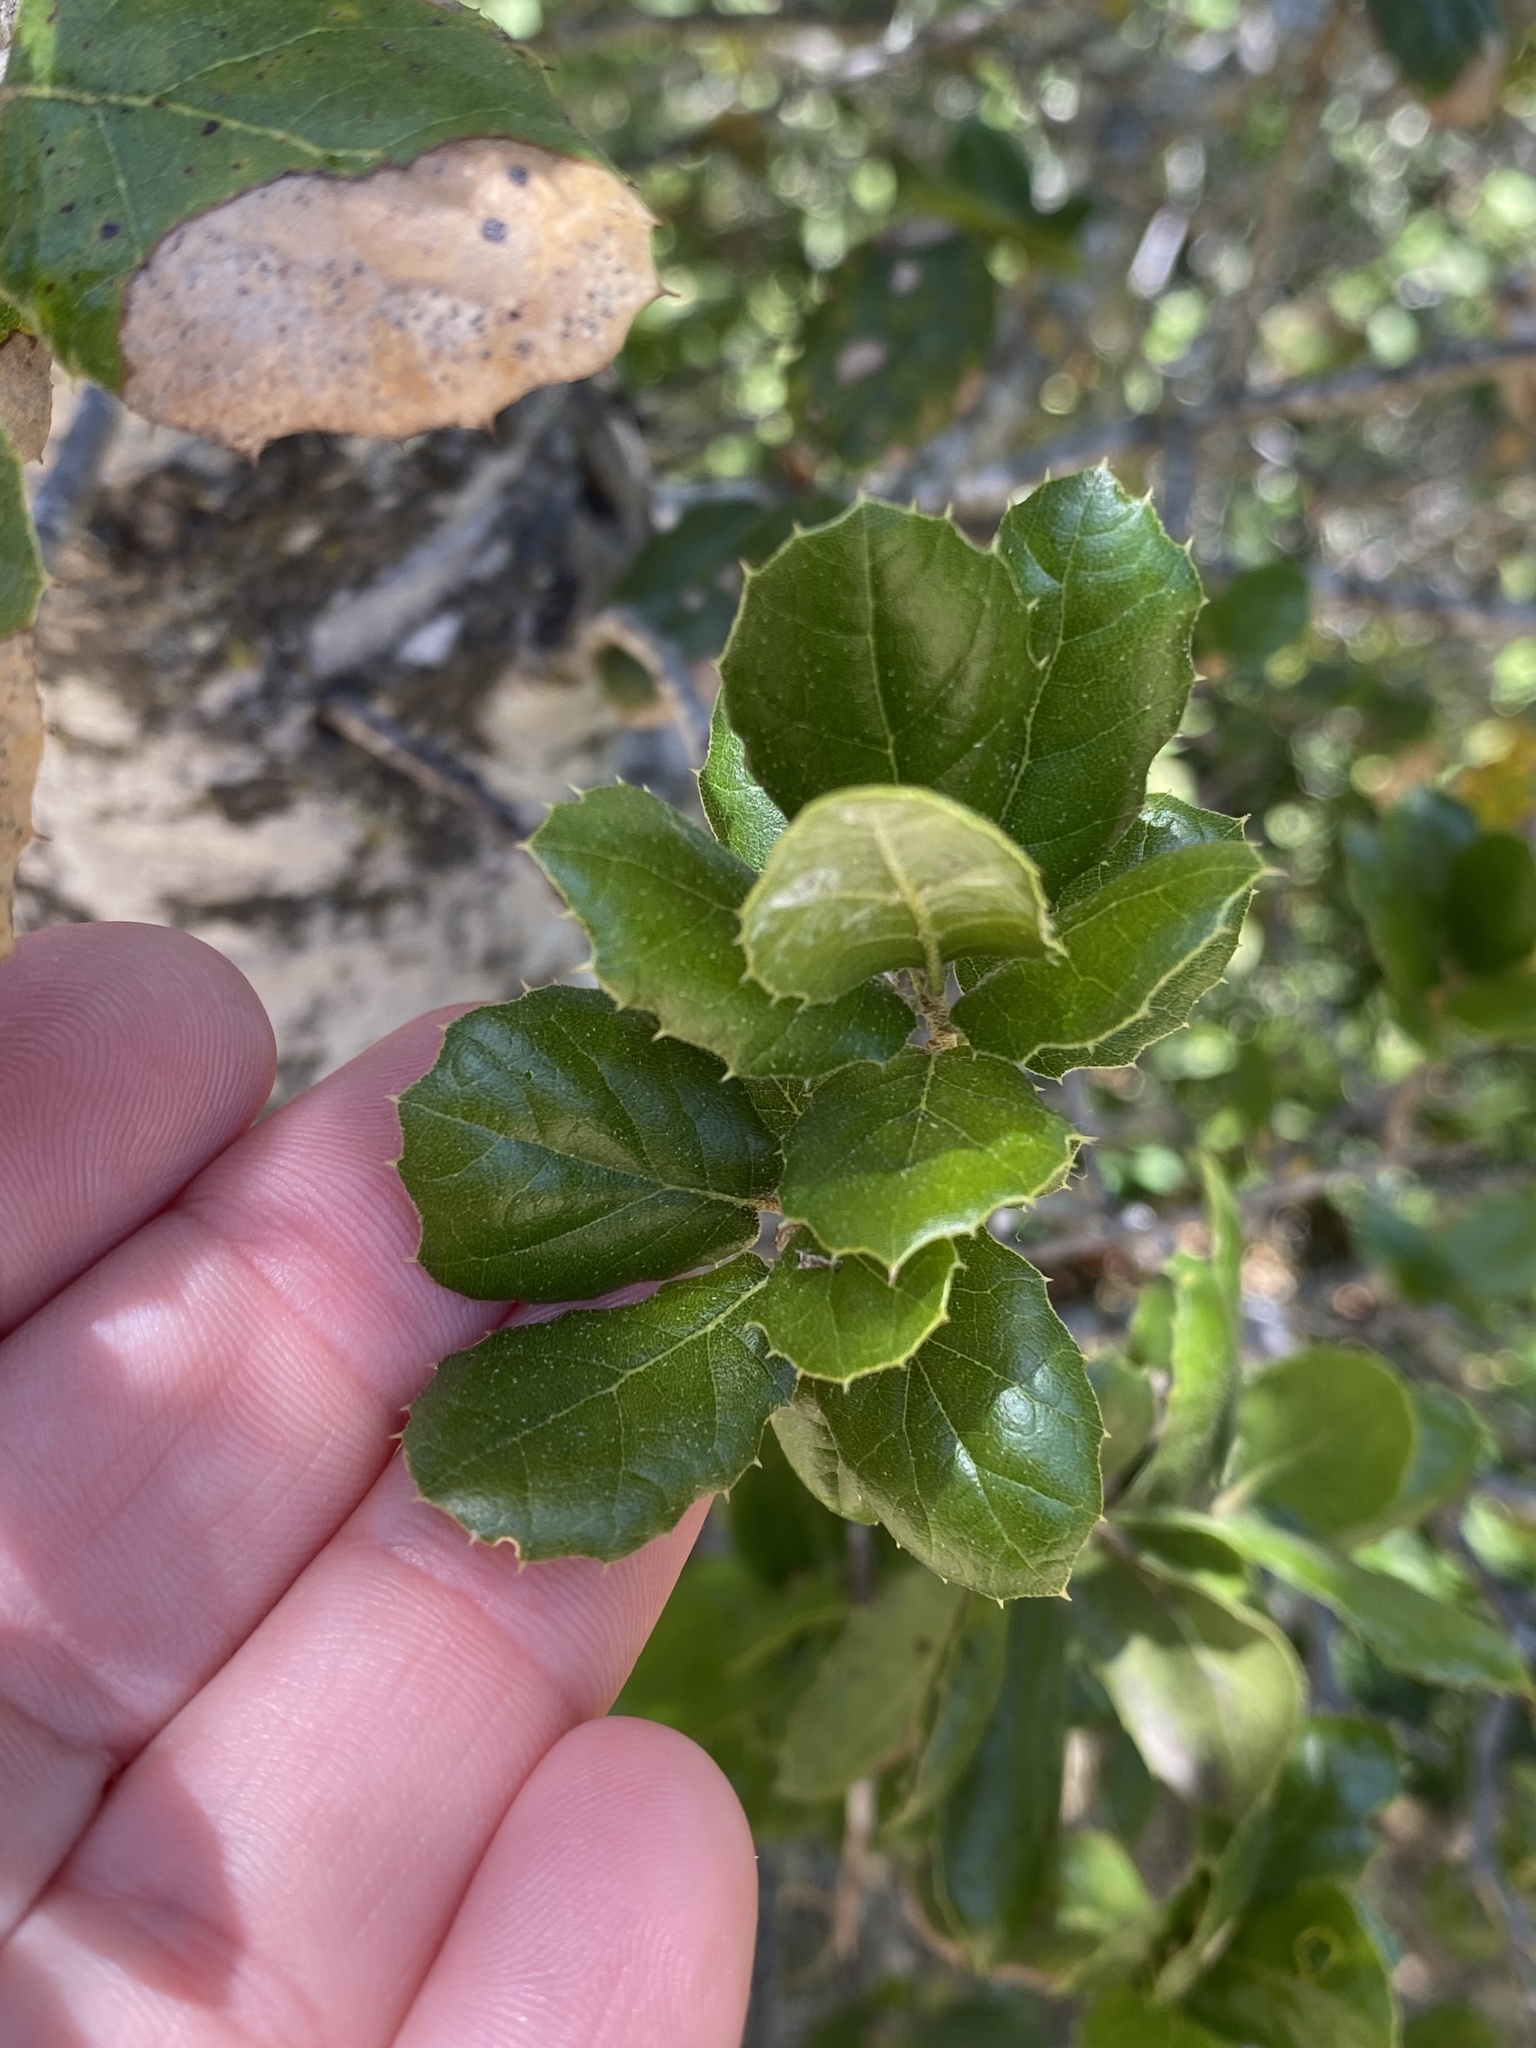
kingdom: Plantae
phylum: Tracheophyta
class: Magnoliopsida
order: Fagales
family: Fagaceae
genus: Quercus
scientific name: Quercus agrifolia
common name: California live oak
